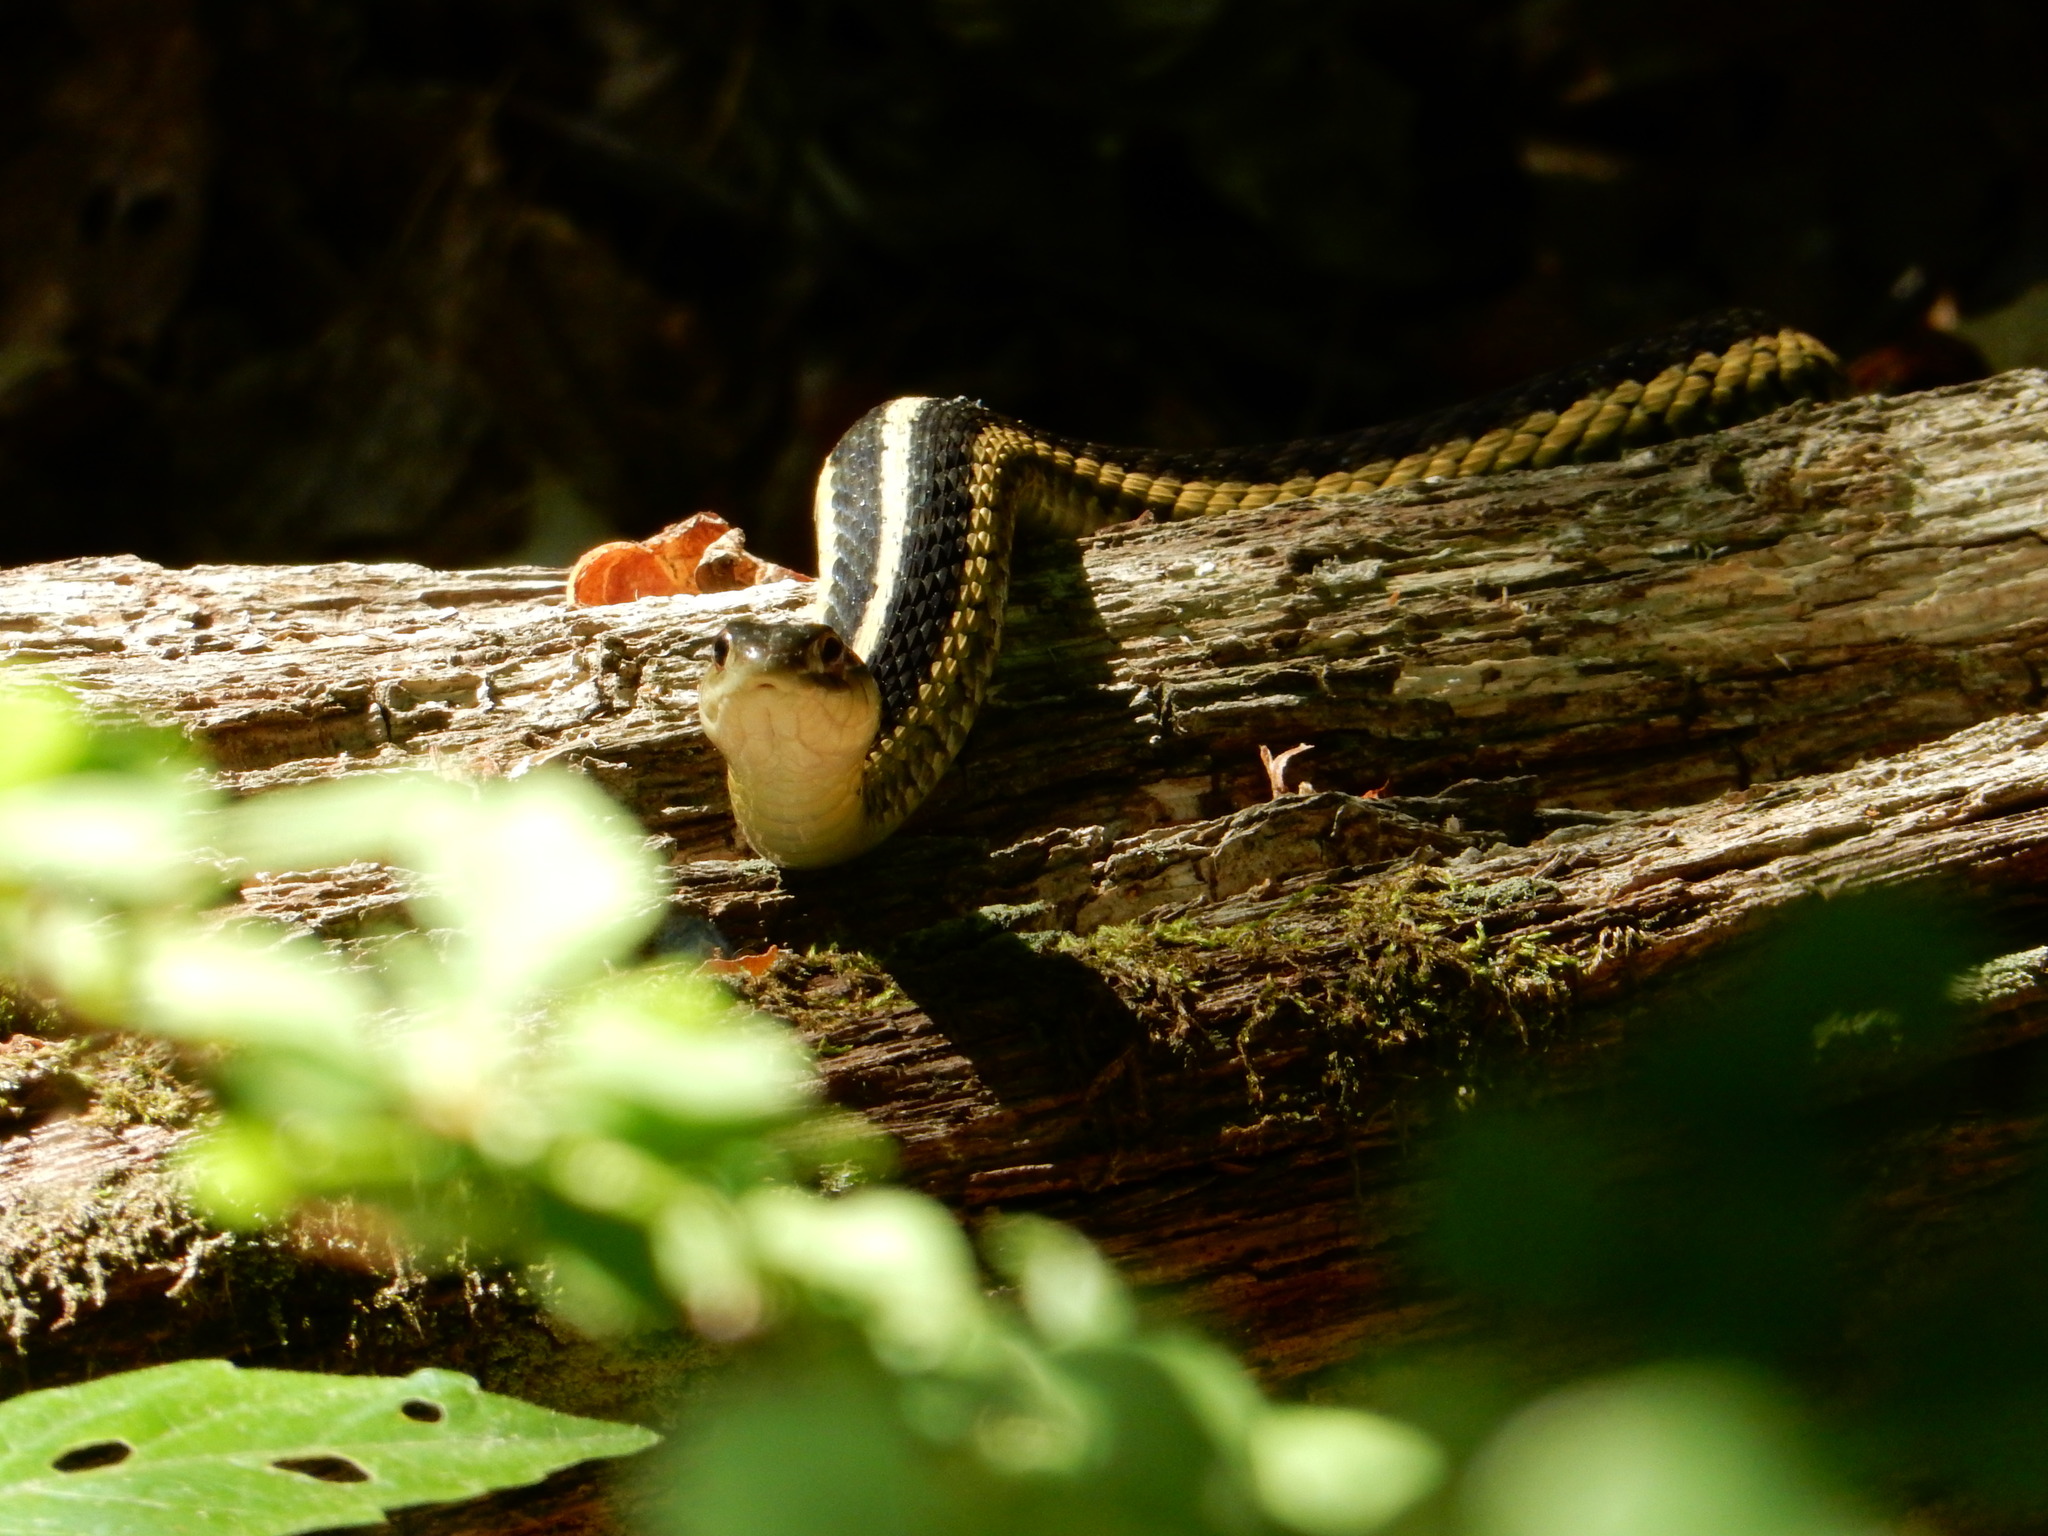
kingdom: Animalia
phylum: Chordata
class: Squamata
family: Colubridae
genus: Thamnophis
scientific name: Thamnophis sirtalis
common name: Common garter snake
